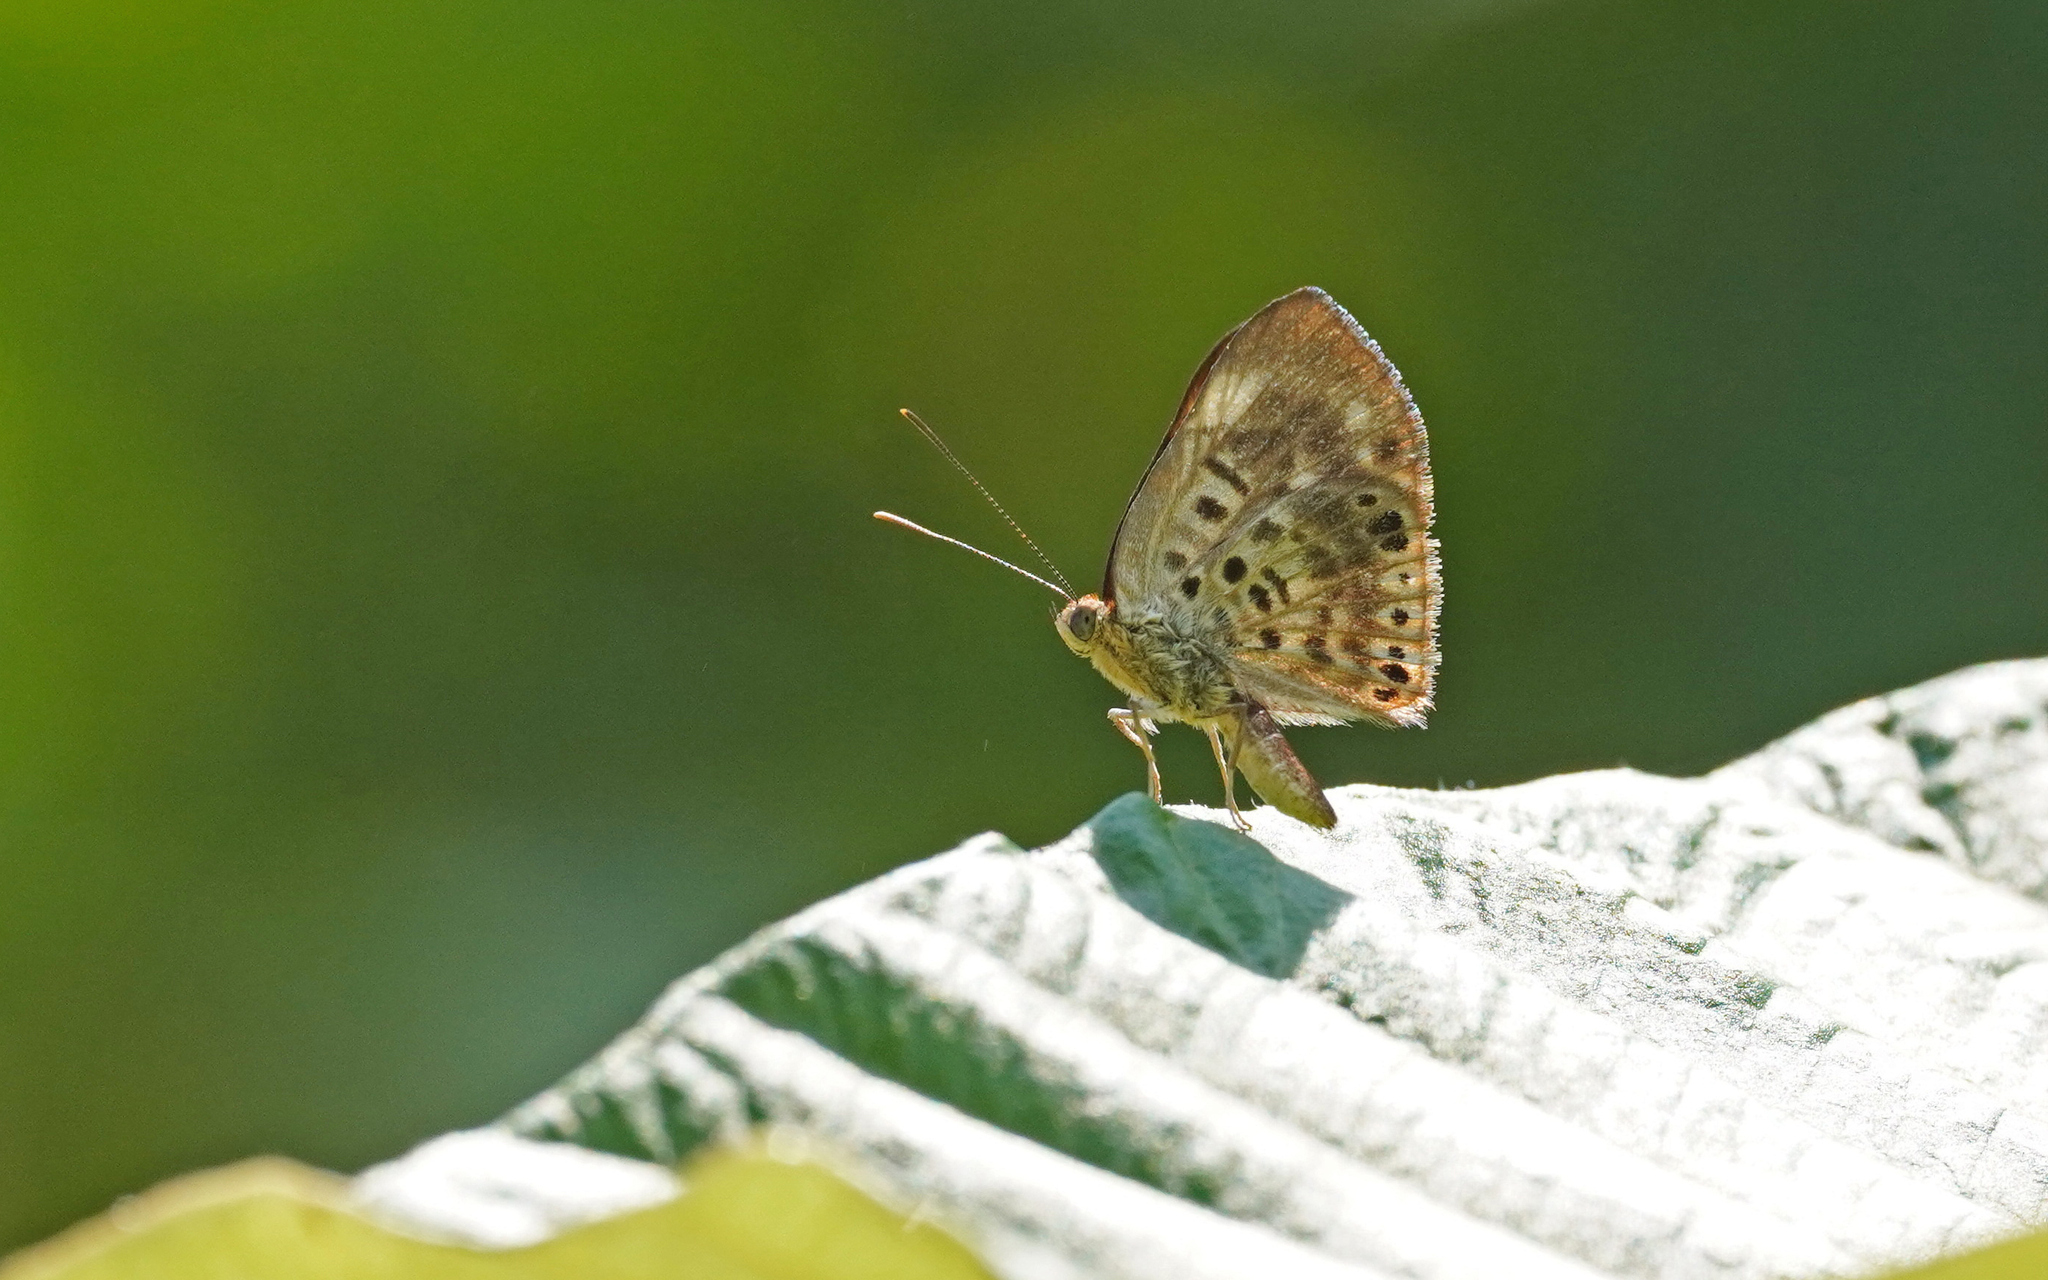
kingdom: Animalia
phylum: Arthropoda
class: Insecta
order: Lepidoptera
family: Riodinidae
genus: Nymula
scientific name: Nymula abaris
